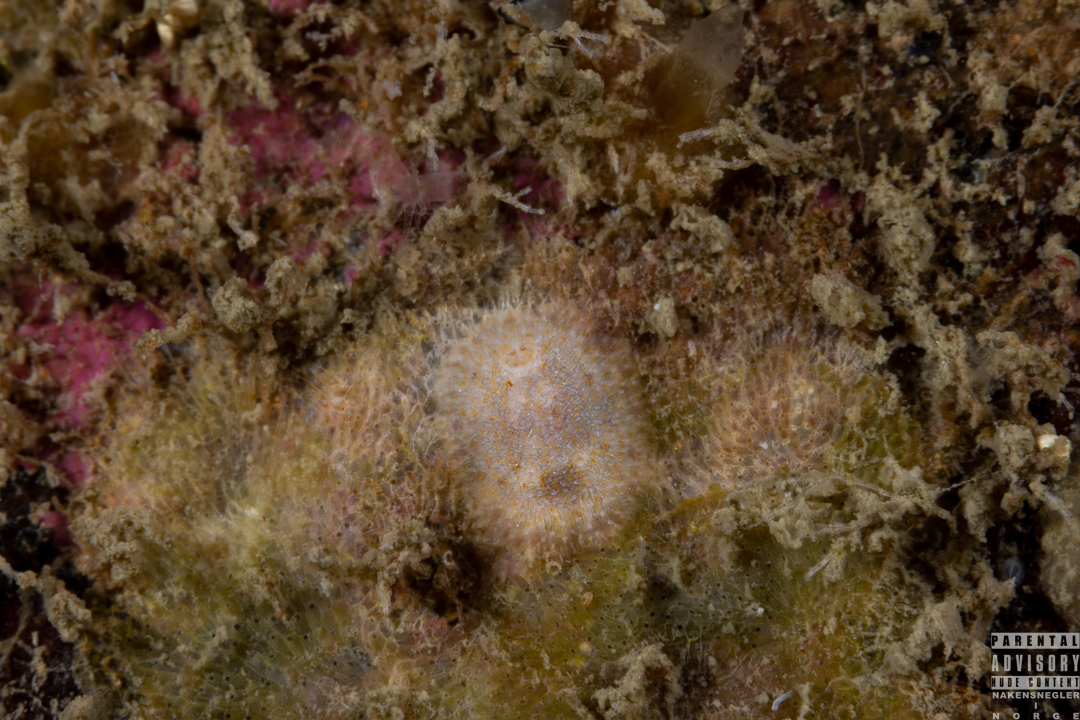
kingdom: Animalia
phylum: Mollusca
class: Gastropoda
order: Nudibranchia
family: Onchidorididae
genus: Idaliadoris
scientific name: Idaliadoris depressa
